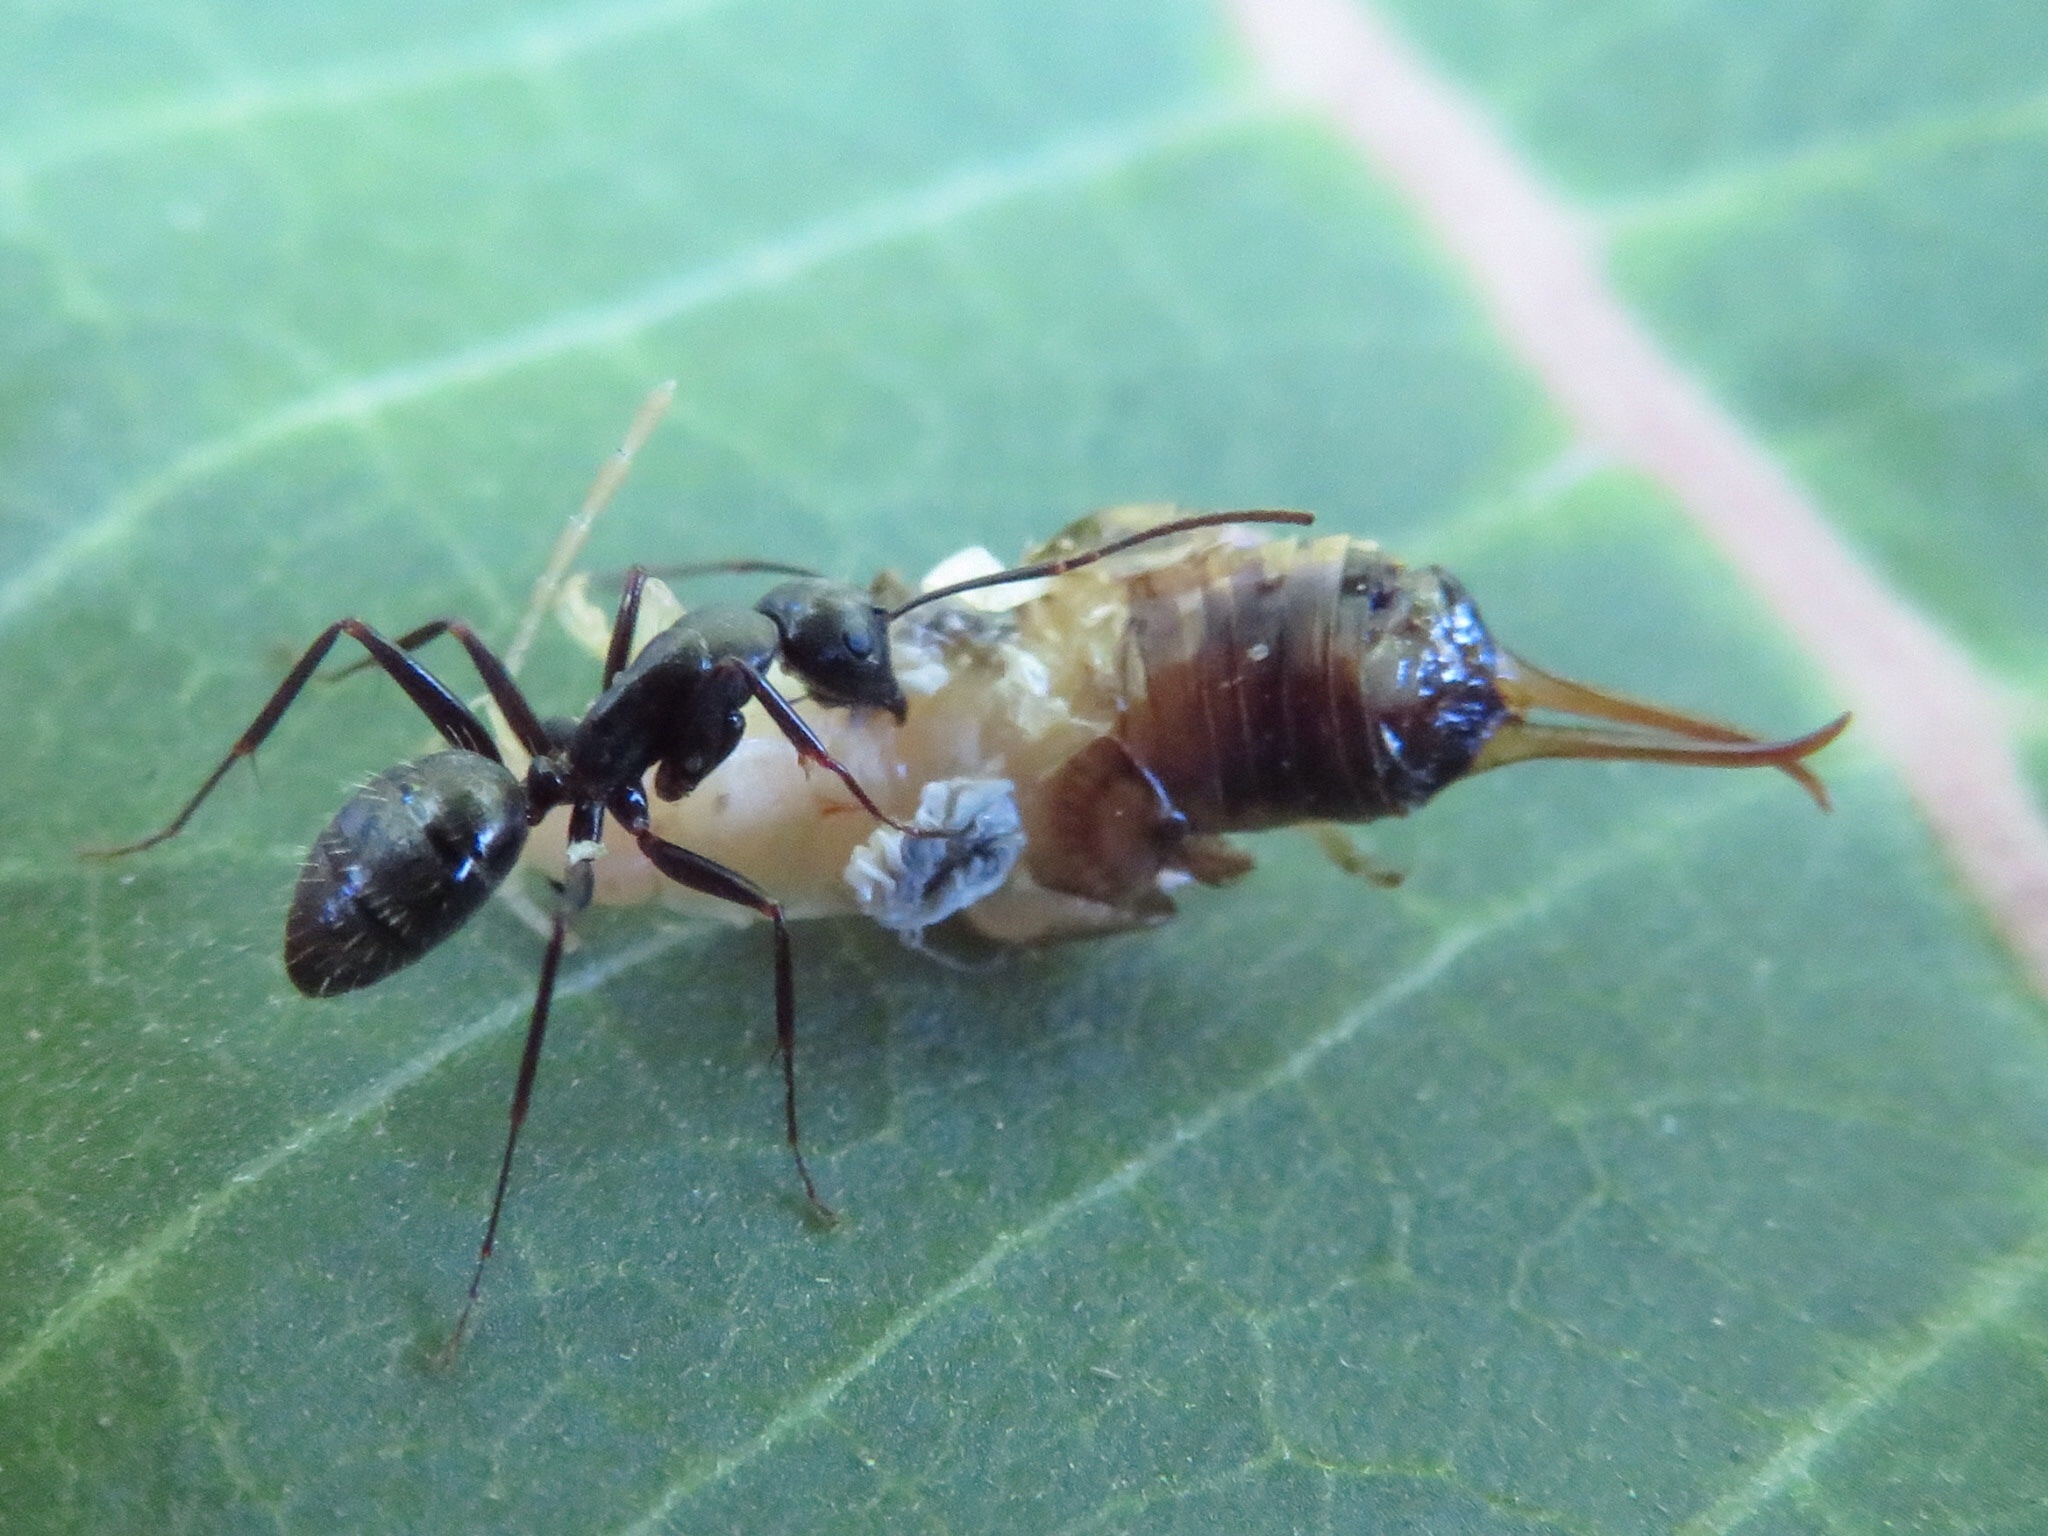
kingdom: Animalia
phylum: Arthropoda
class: Insecta
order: Hymenoptera
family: Formicidae
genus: Camponotus
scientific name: Camponotus pennsylvanicus
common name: Black carpenter ant
